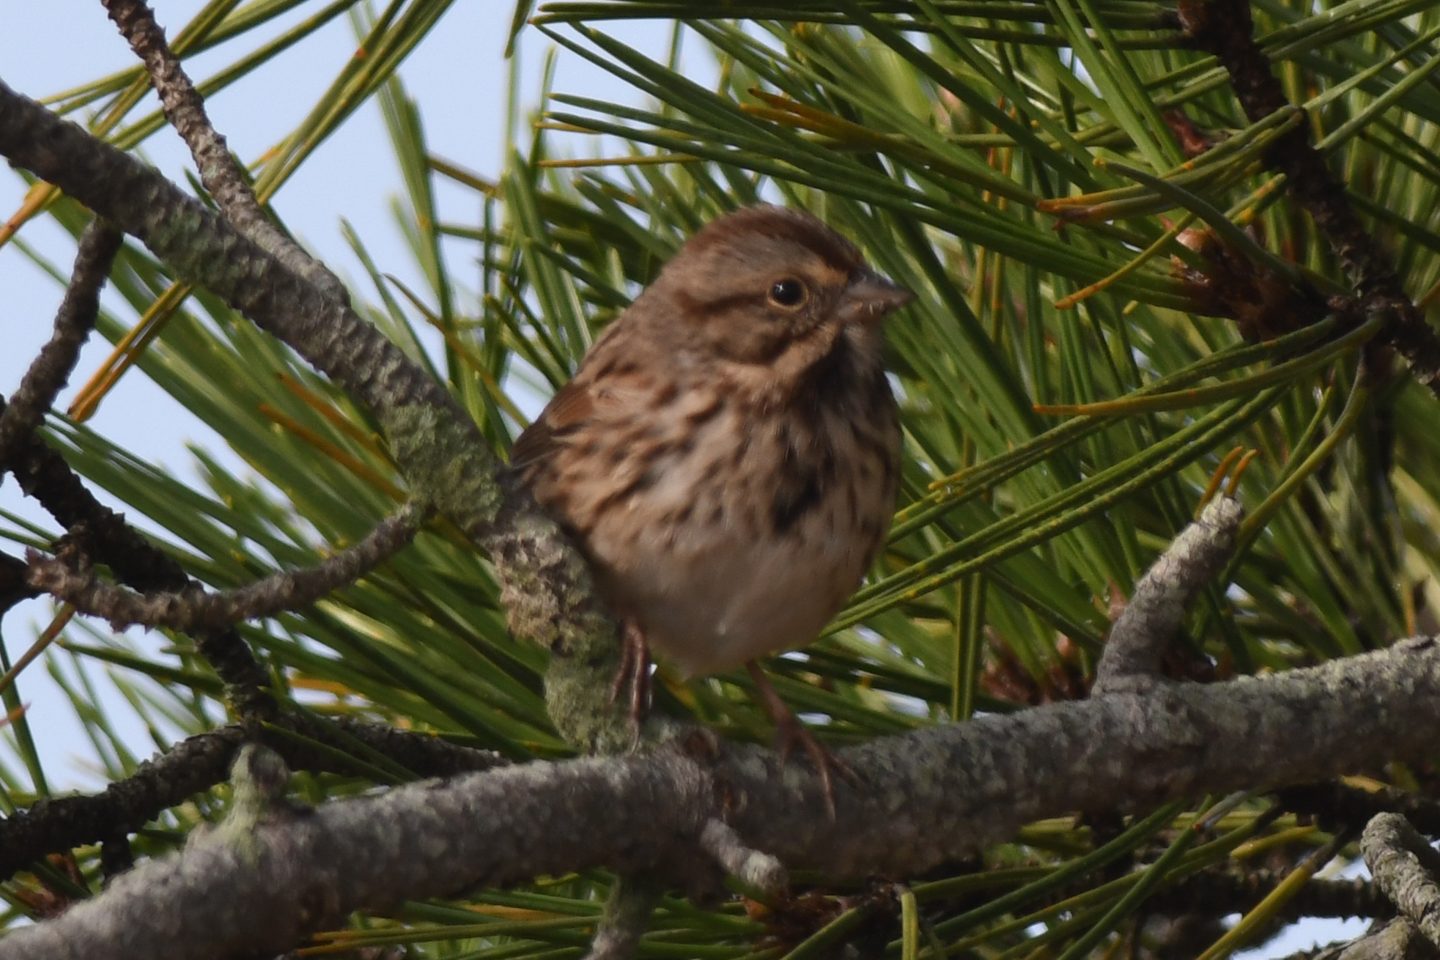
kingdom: Animalia
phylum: Chordata
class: Aves
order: Passeriformes
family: Passerellidae
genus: Melospiza
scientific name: Melospiza melodia
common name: Song sparrow
